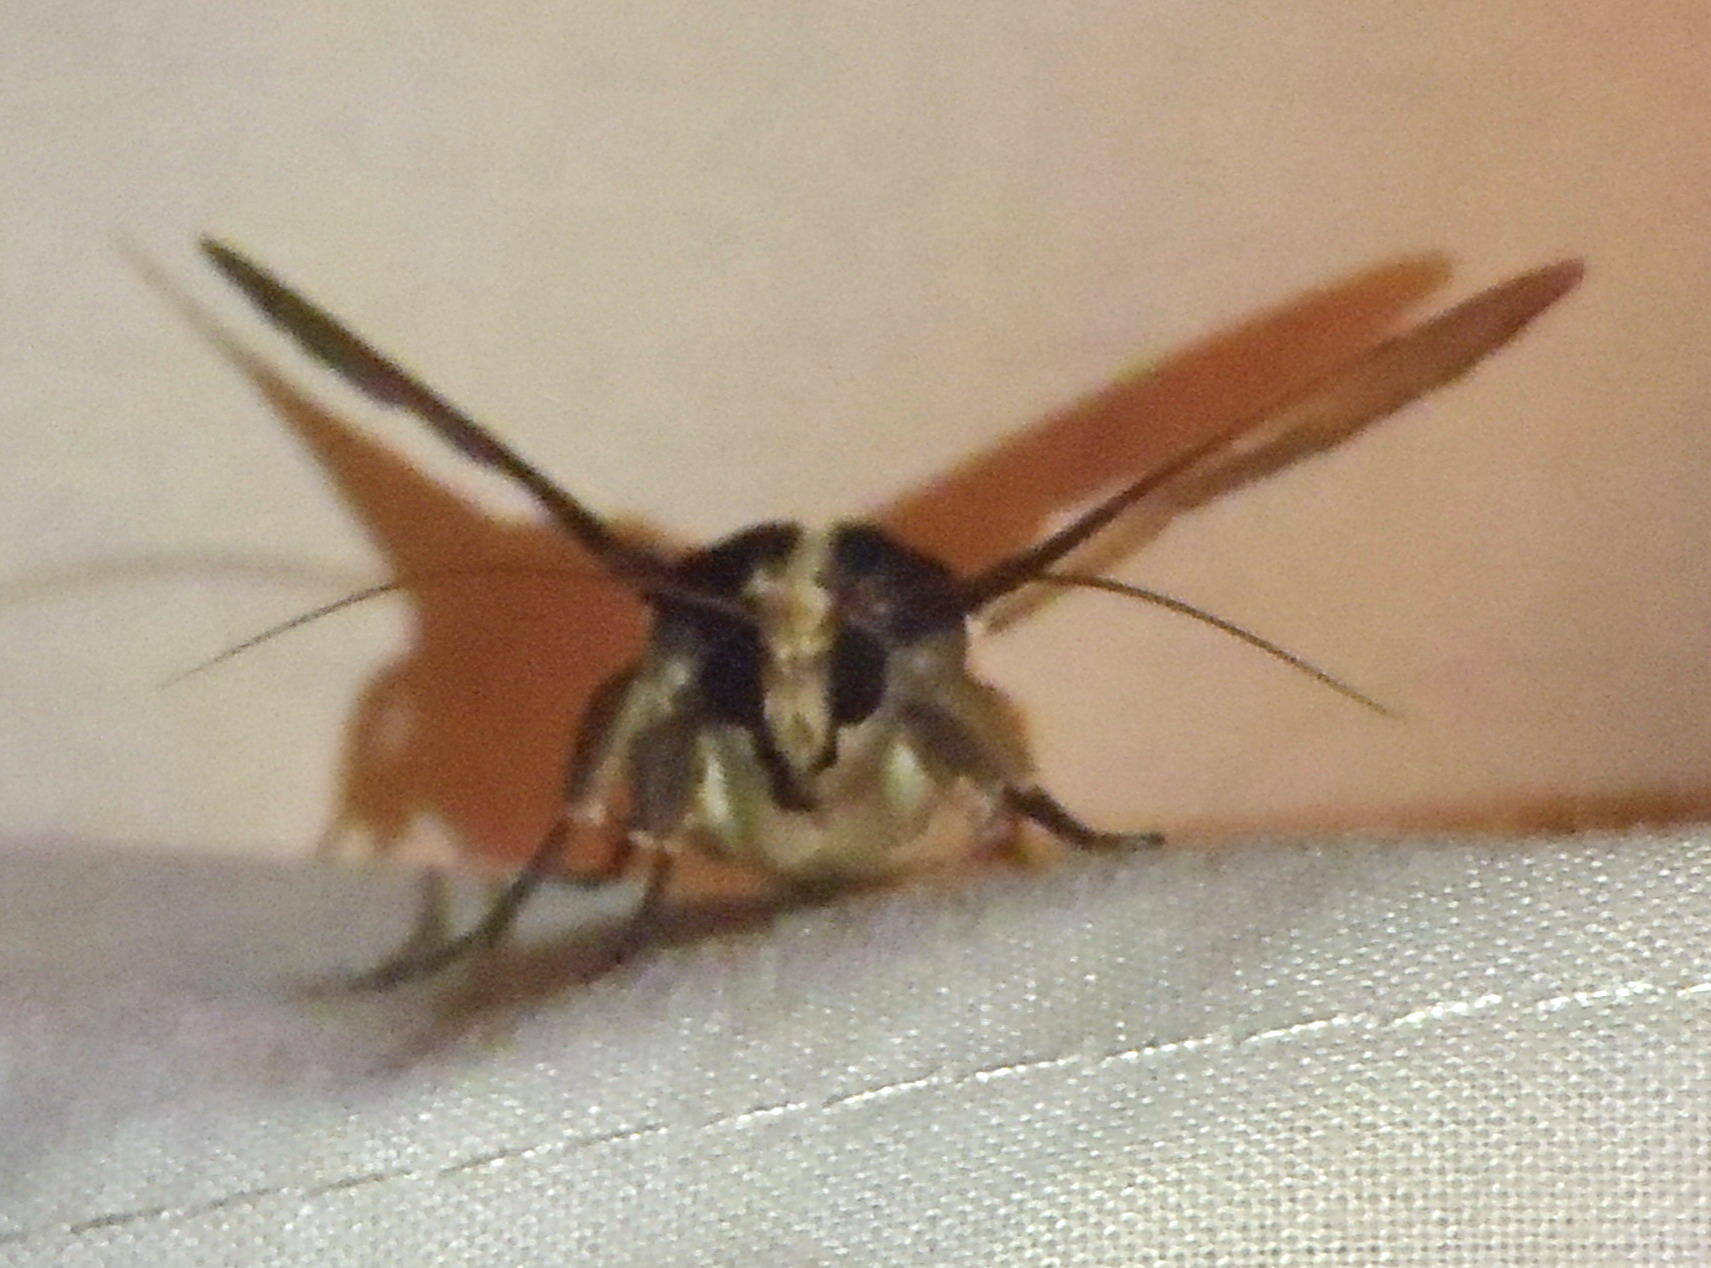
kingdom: Animalia
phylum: Arthropoda
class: Insecta
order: Lepidoptera
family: Erebidae
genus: Sphingomorpha
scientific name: Sphingomorpha chlorea
